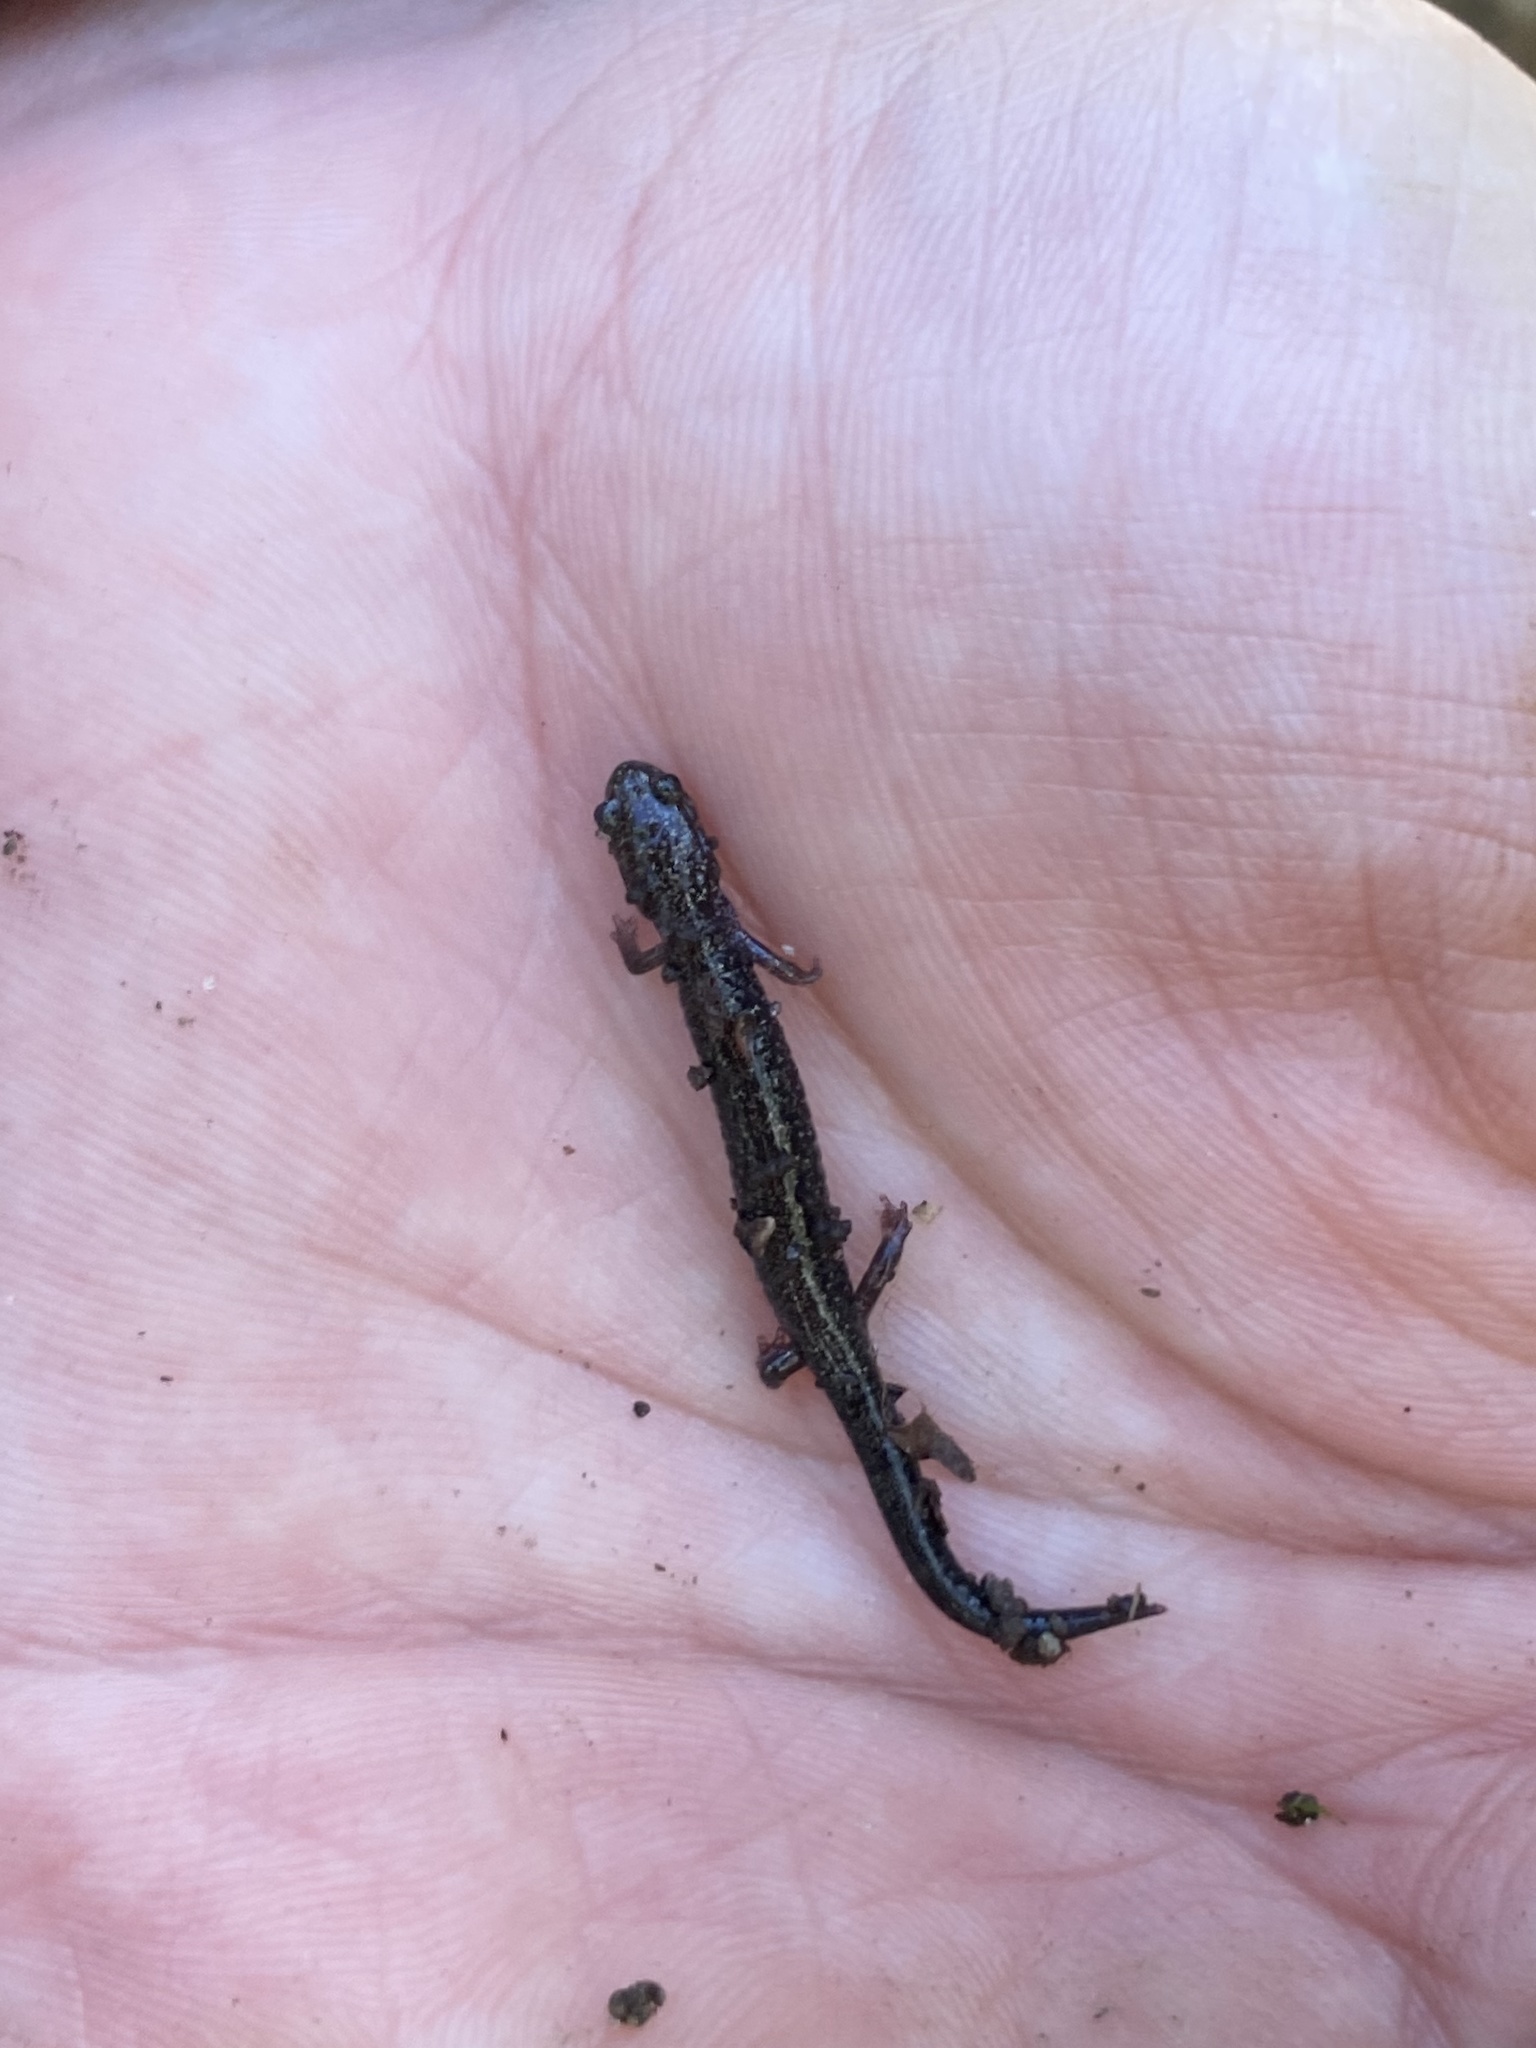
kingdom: Animalia
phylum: Chordata
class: Amphibia
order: Caudata
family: Plethodontidae
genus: Plethodon
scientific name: Plethodon richmondi
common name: Ravine salamander
